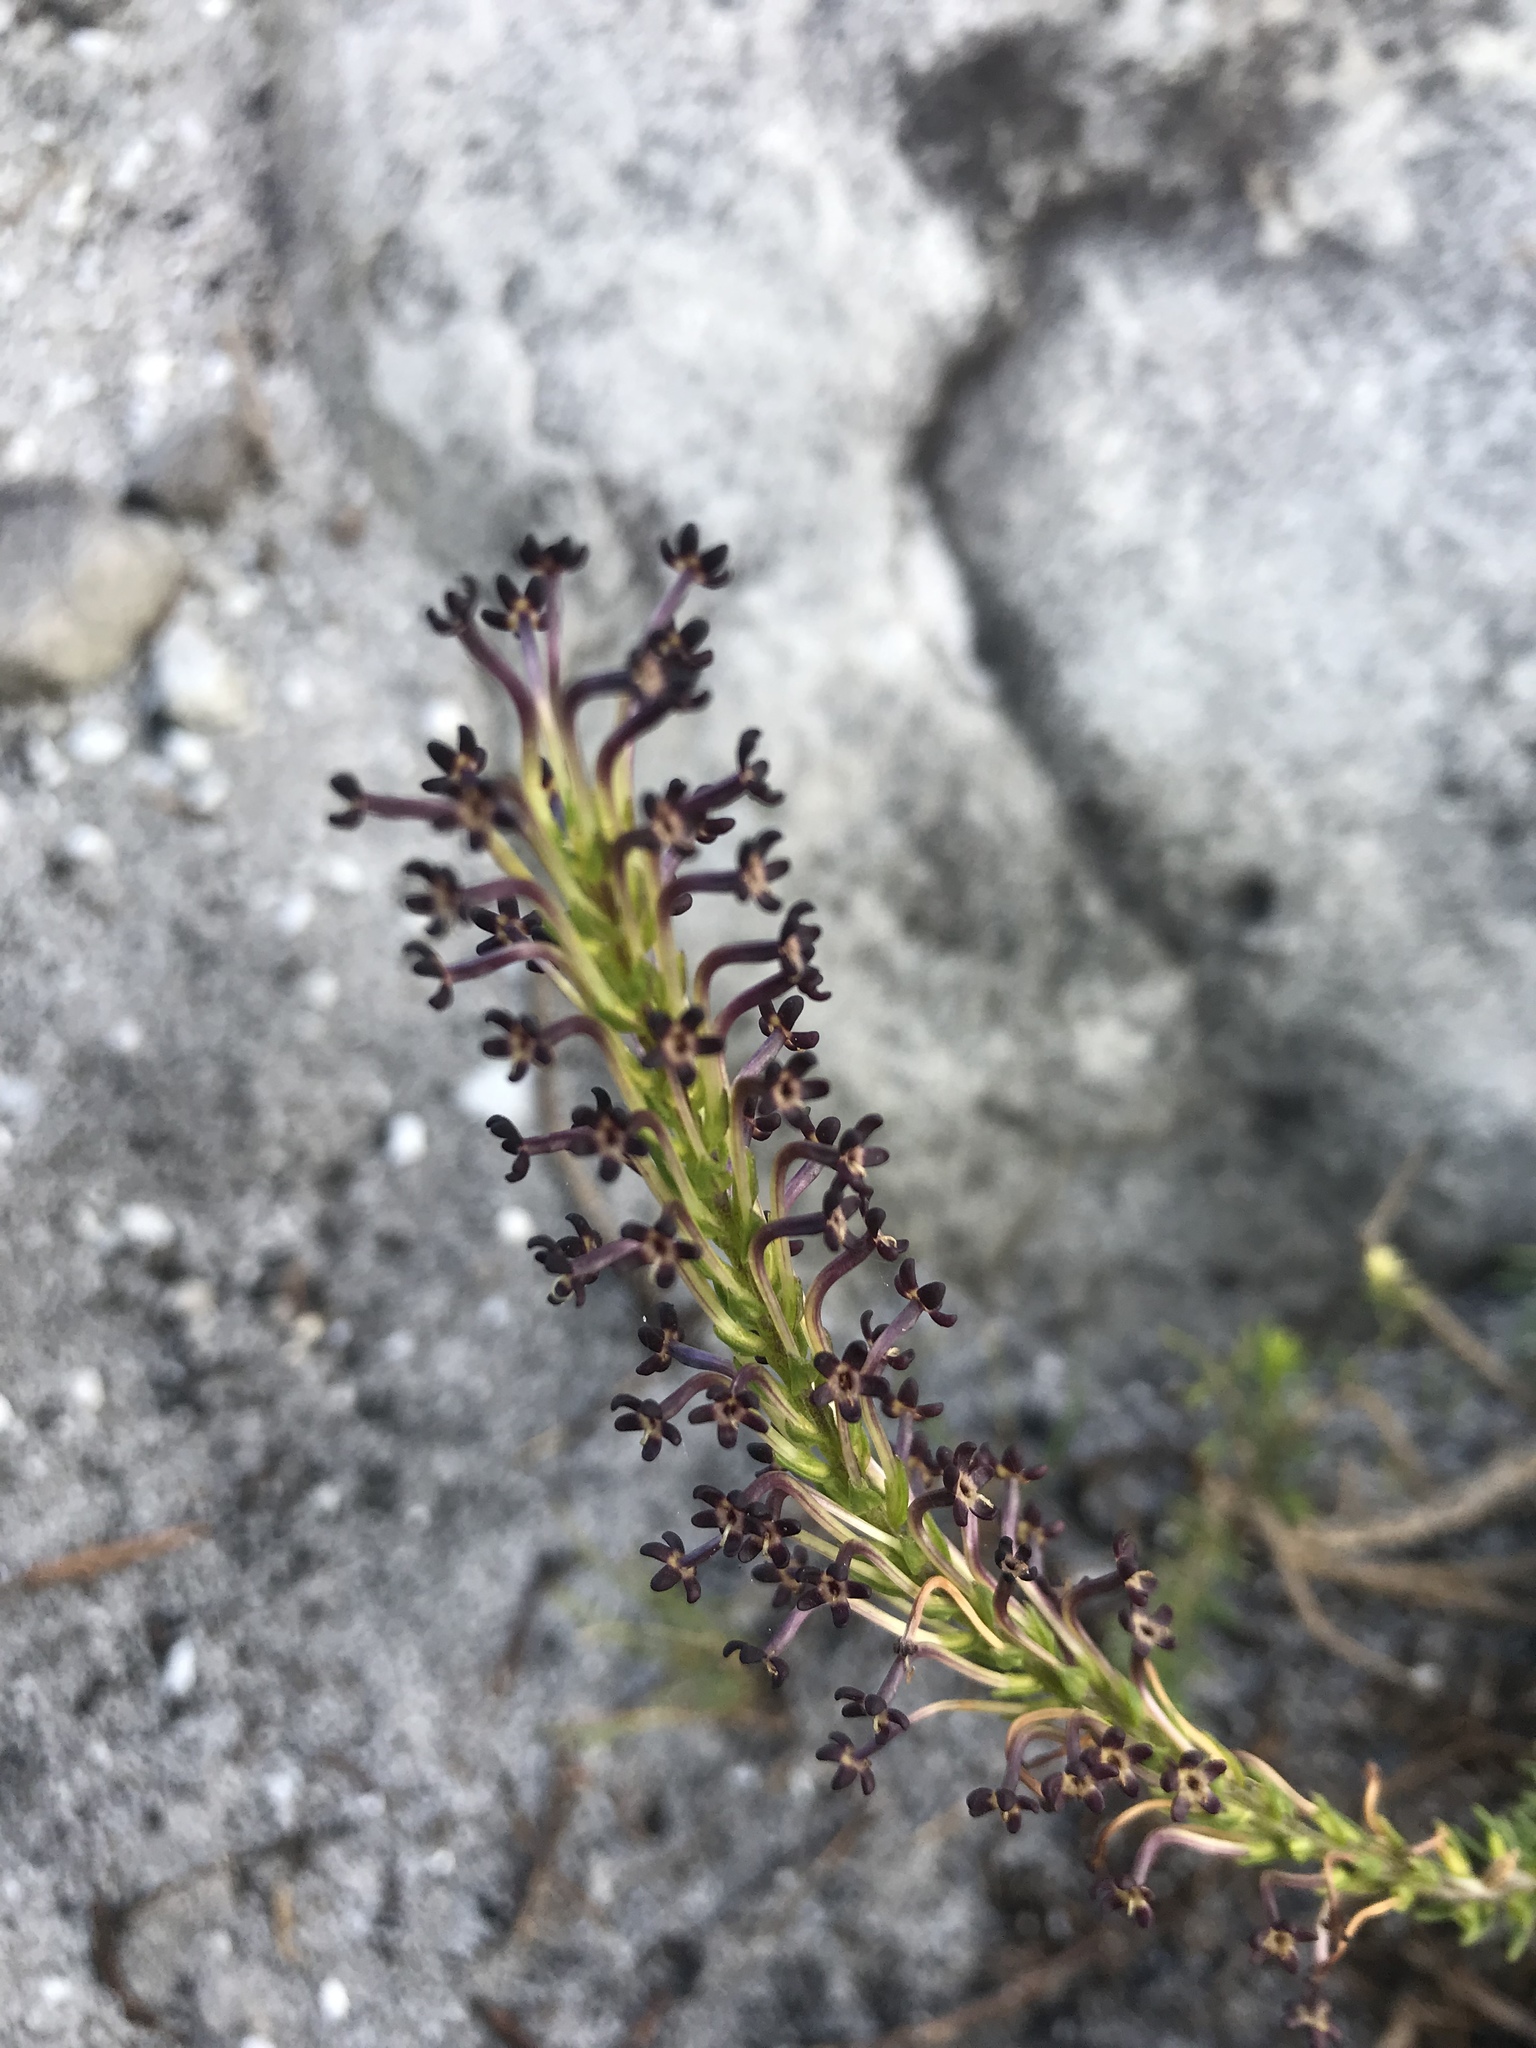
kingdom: Plantae
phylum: Tracheophyta
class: Magnoliopsida
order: Lamiales
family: Scrophulariaceae
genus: Microdon
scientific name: Microdon dubius
